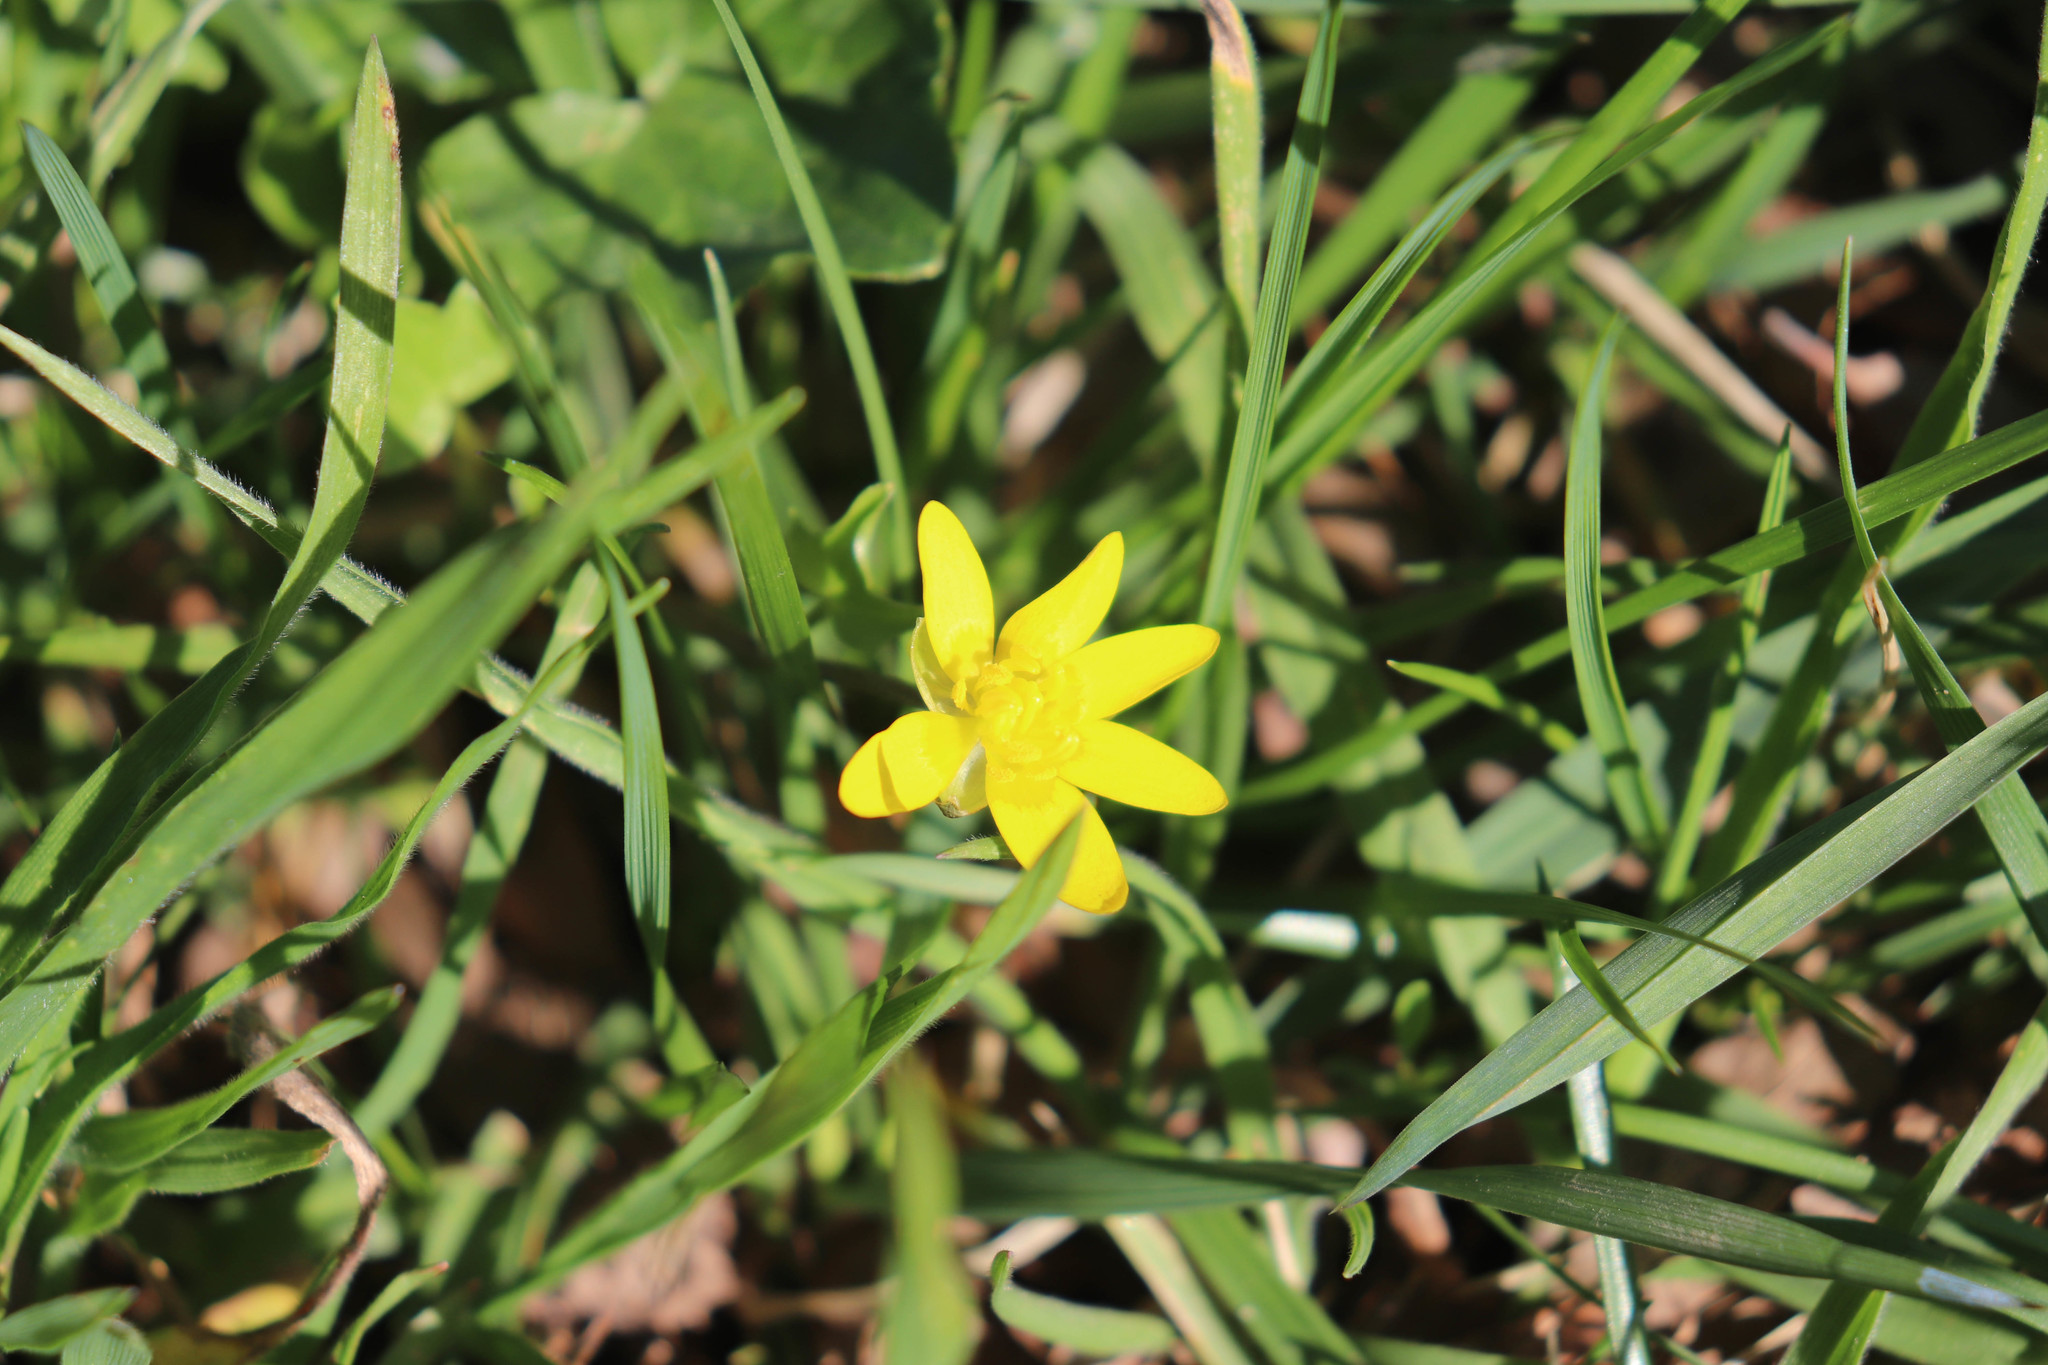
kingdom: Plantae
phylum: Tracheophyta
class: Magnoliopsida
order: Ranunculales
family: Ranunculaceae
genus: Ficaria
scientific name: Ficaria verna
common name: Lesser celandine
